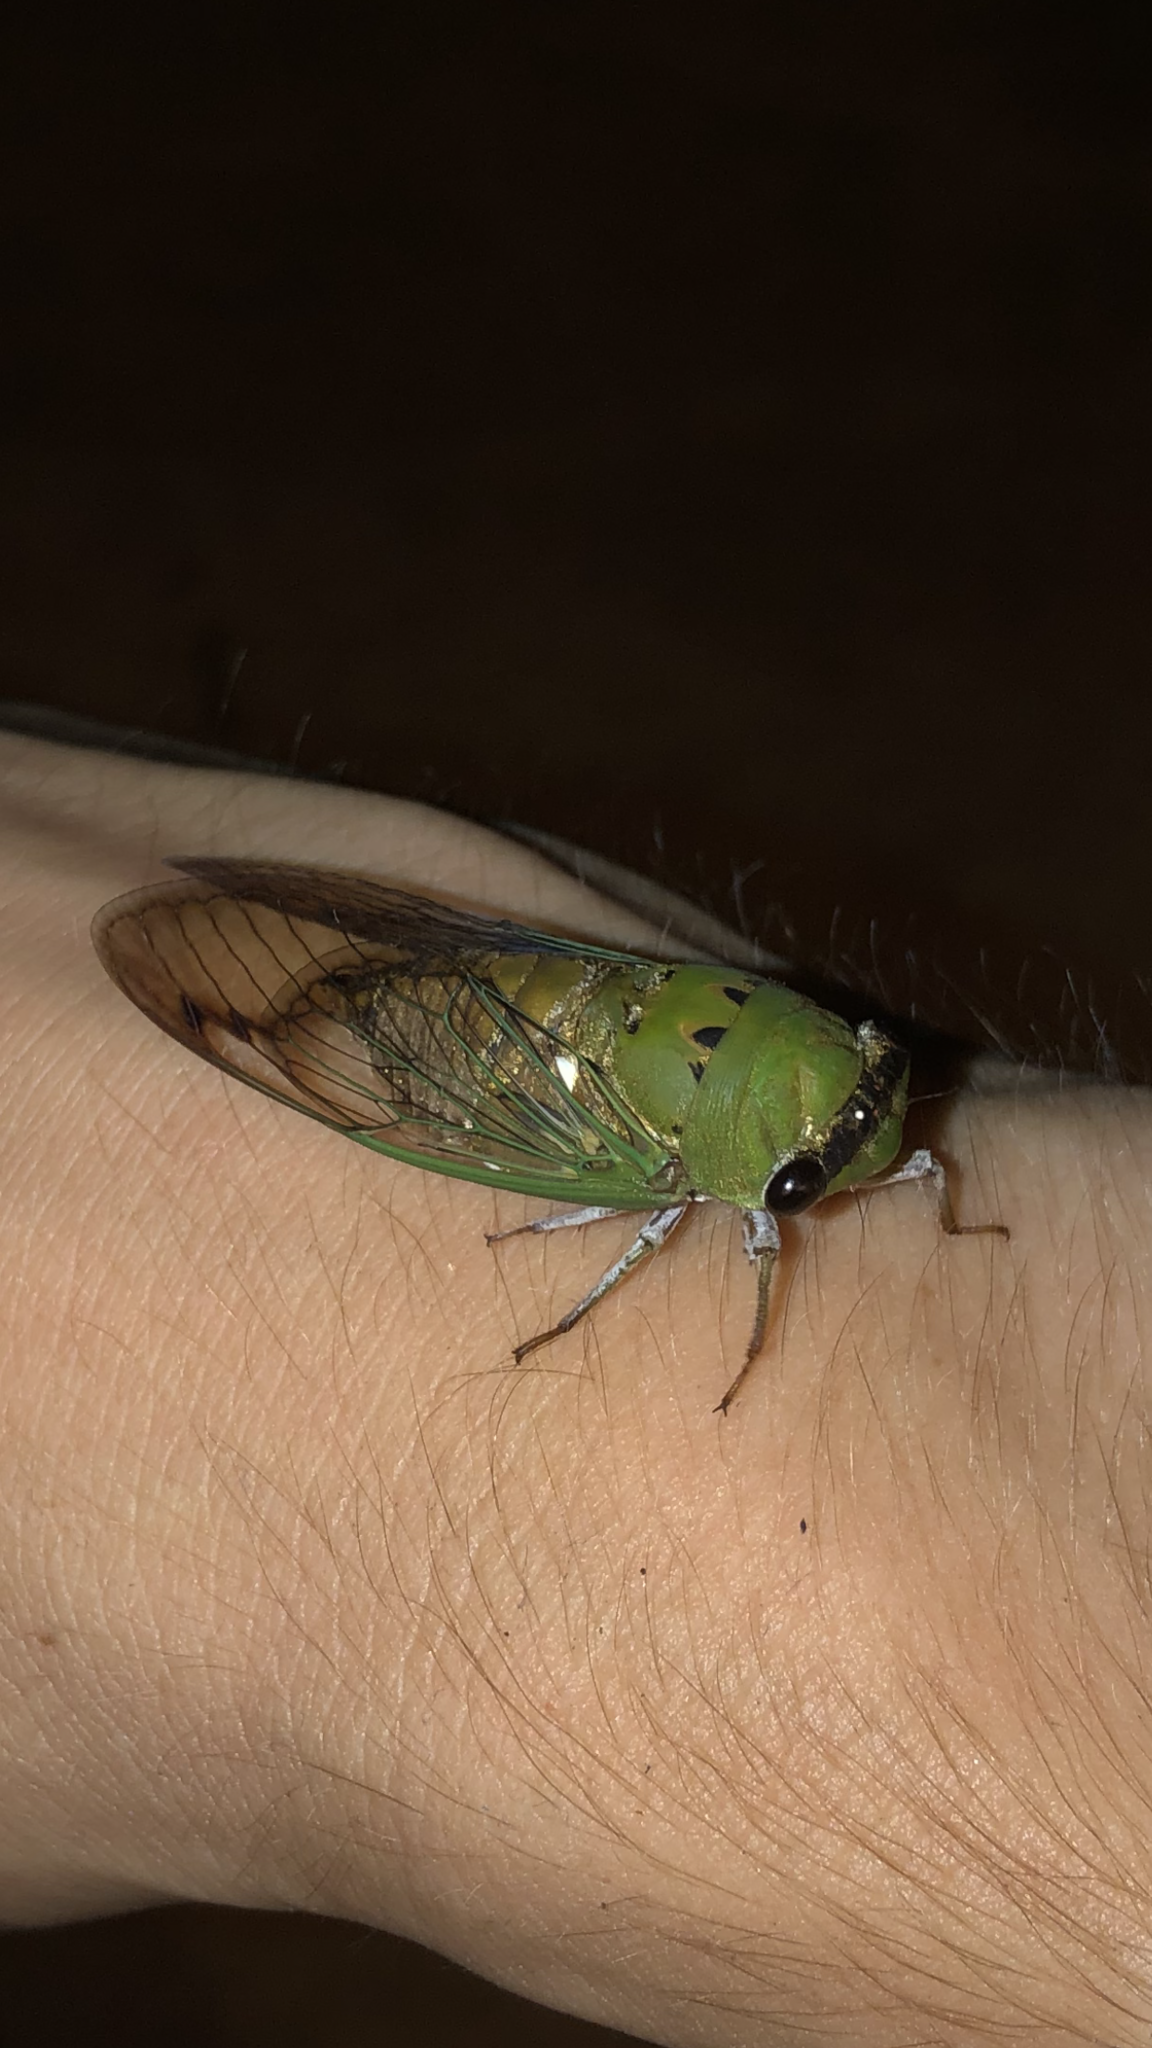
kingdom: Animalia
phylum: Arthropoda
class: Insecta
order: Hemiptera
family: Cicadidae
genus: Neotibicen
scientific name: Neotibicen superbus
